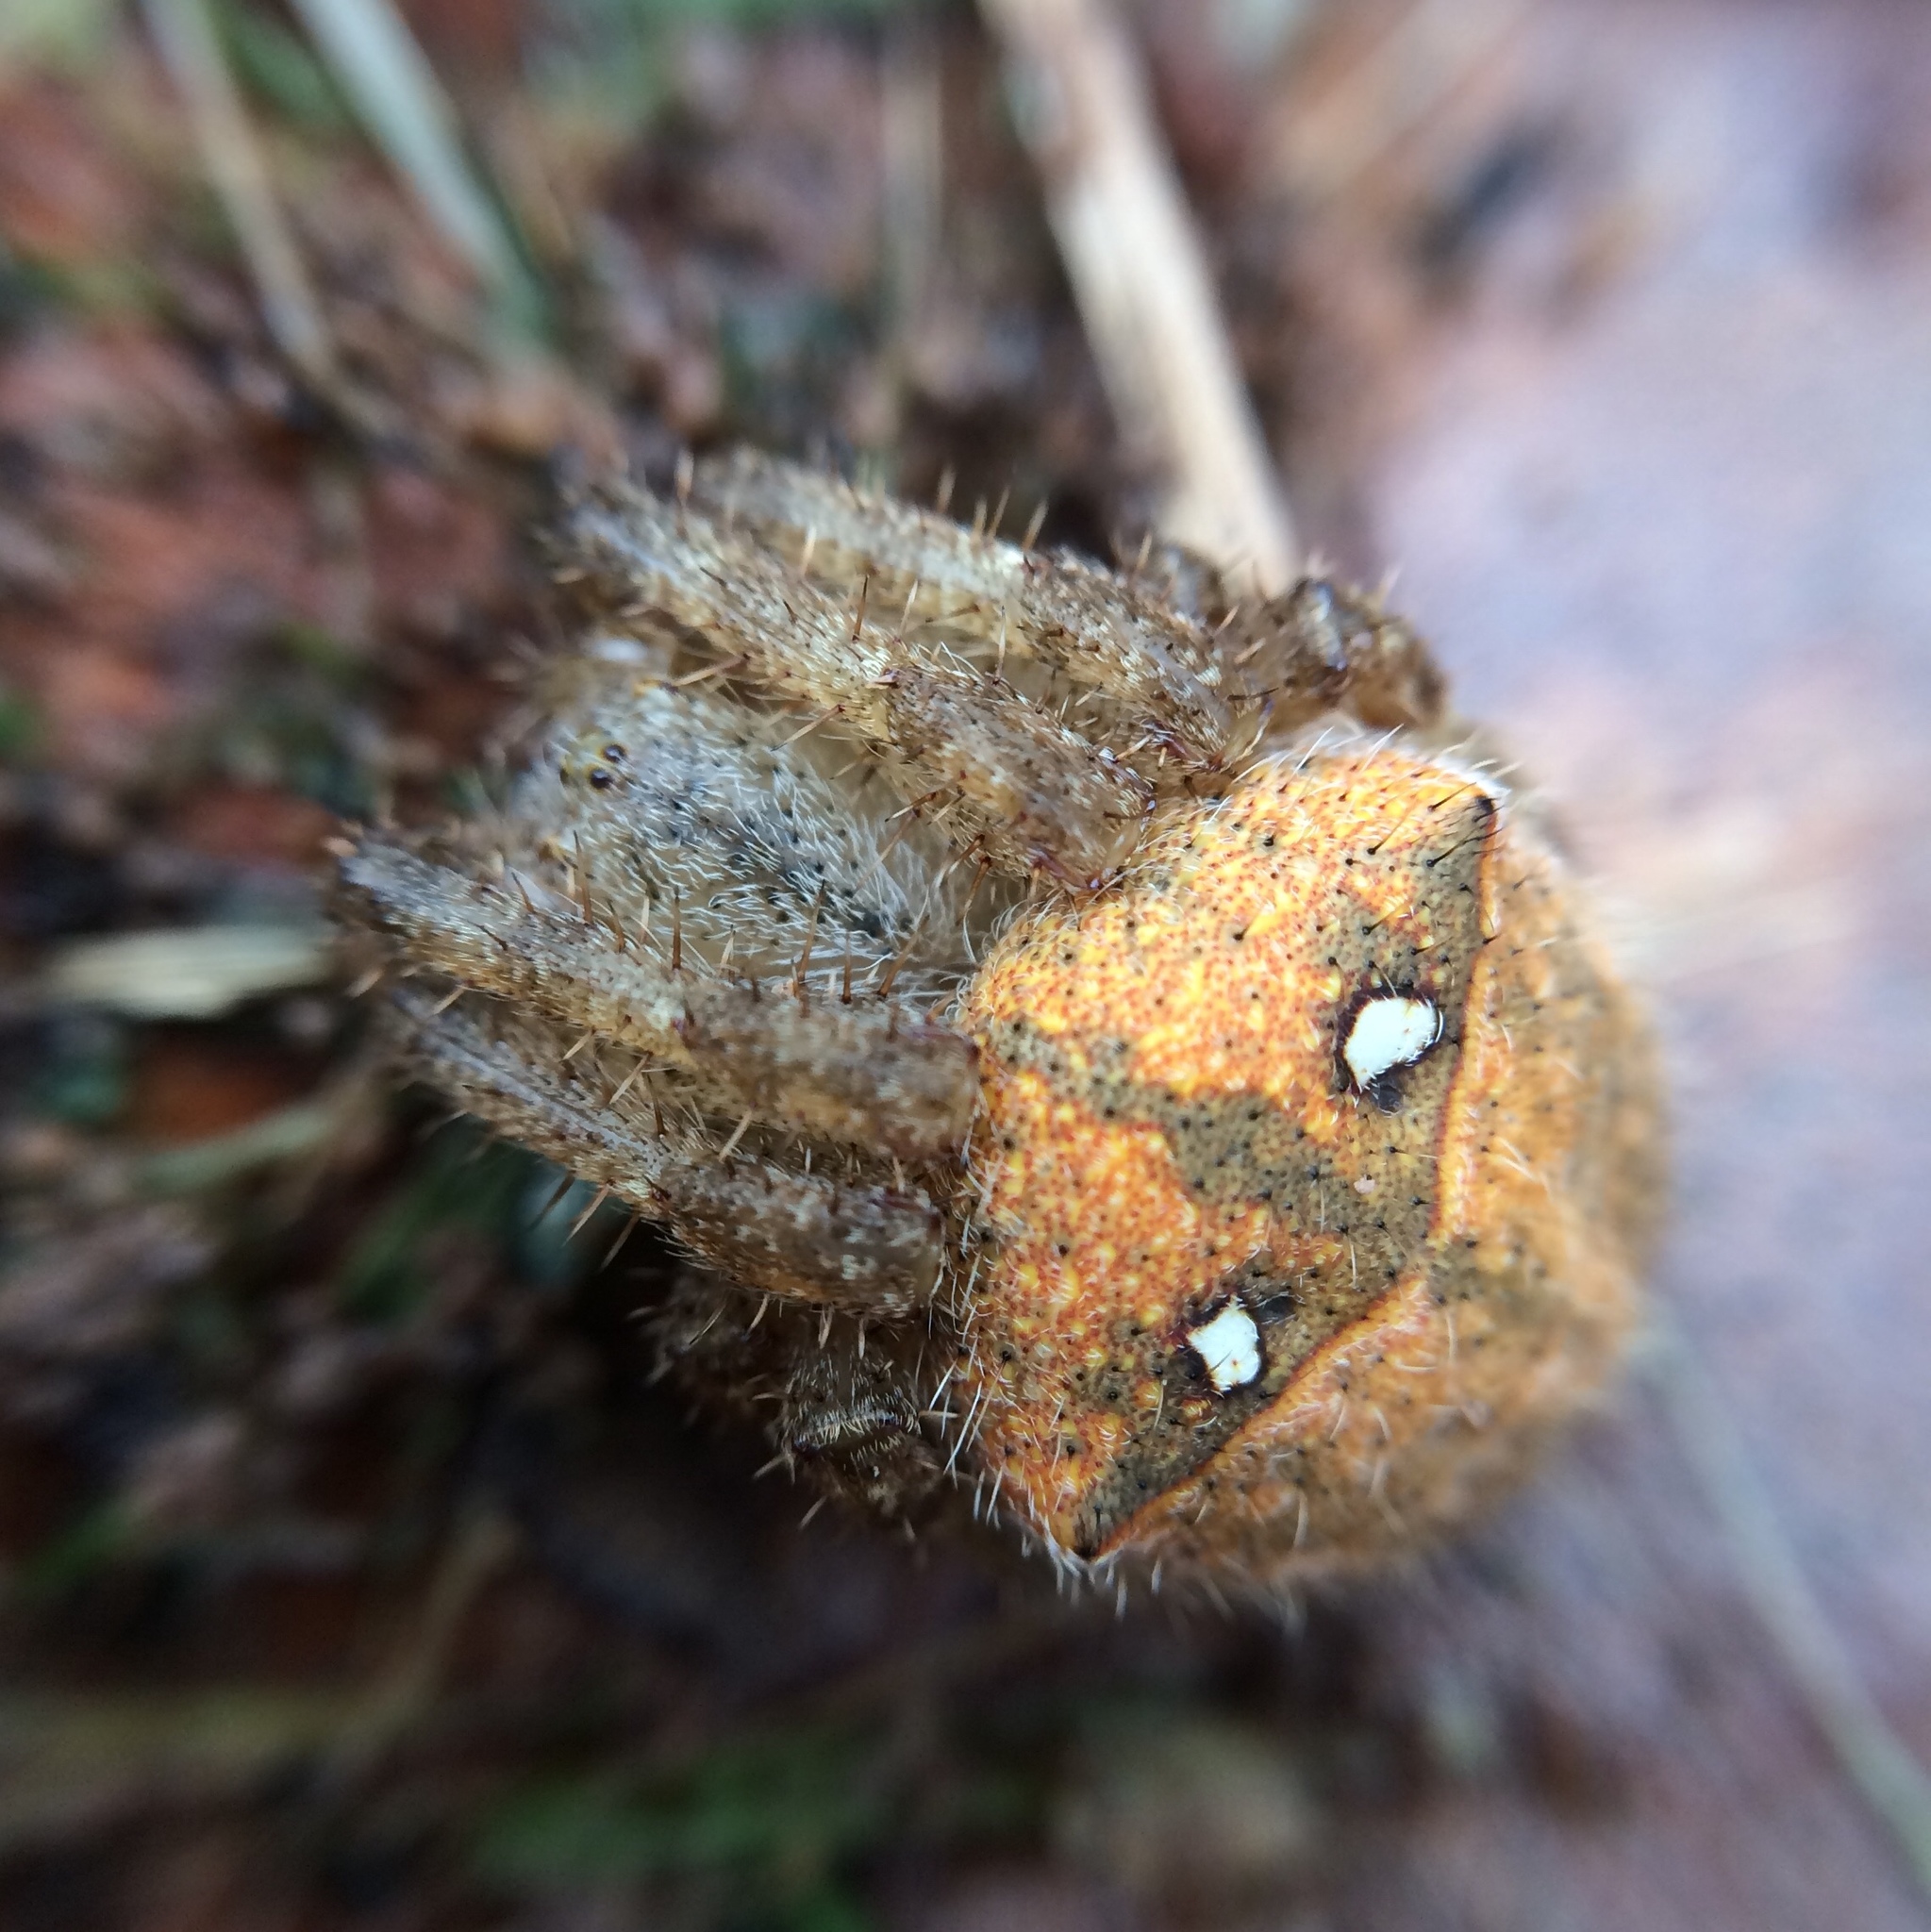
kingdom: Animalia
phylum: Arthropoda
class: Arachnida
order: Araneae
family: Araneidae
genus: Pararaneus
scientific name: Pararaneus cyrtoscapus
